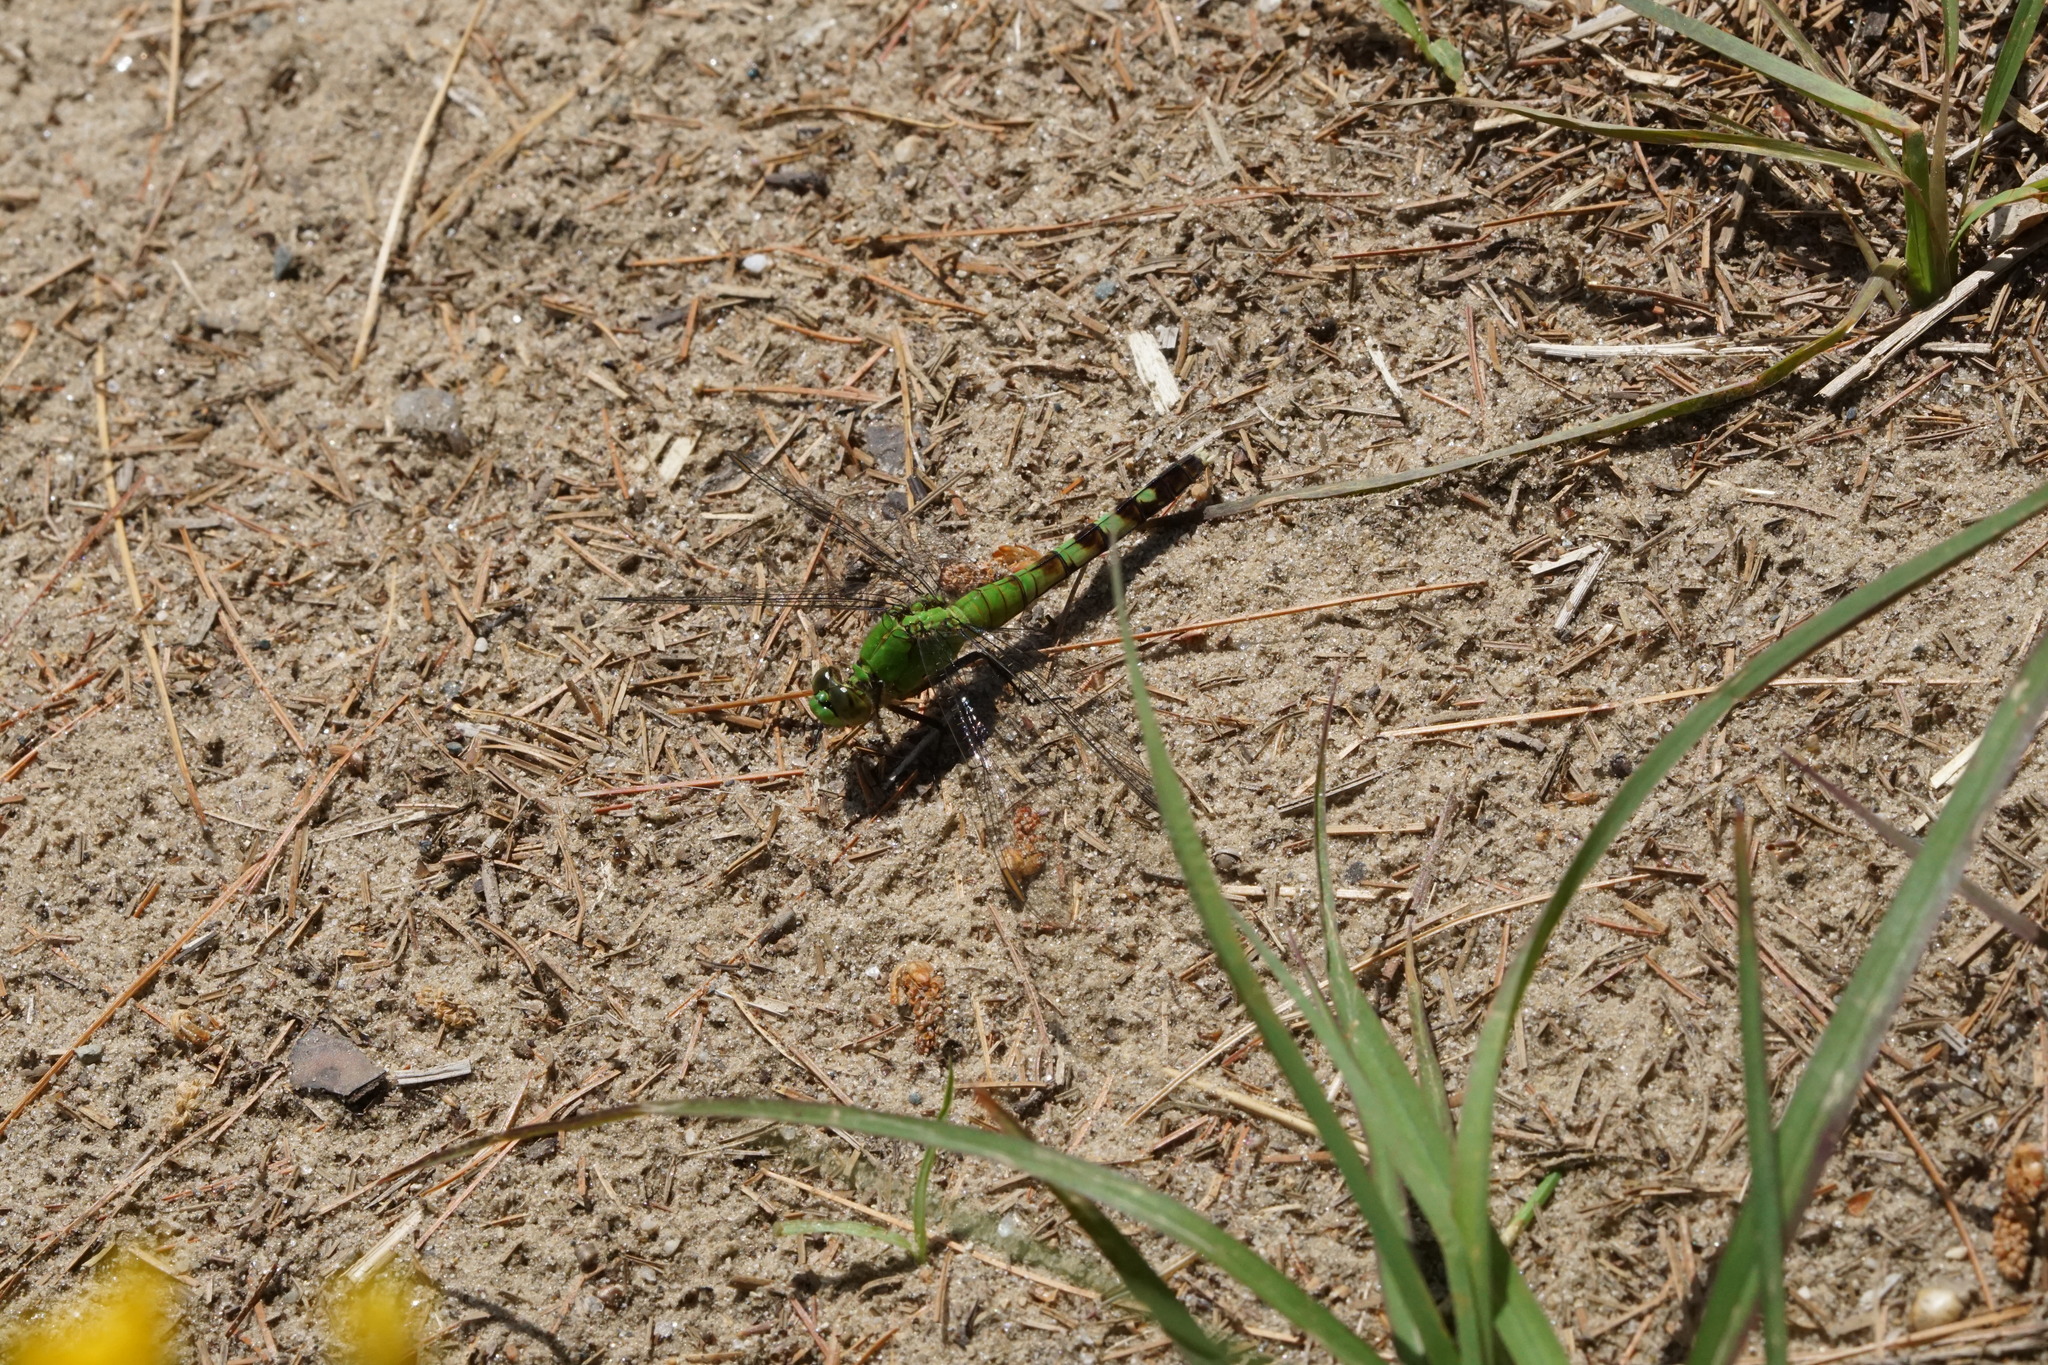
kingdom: Animalia
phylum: Arthropoda
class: Insecta
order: Odonata
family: Libellulidae
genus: Erythemis
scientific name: Erythemis simplicicollis
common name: Eastern pondhawk
